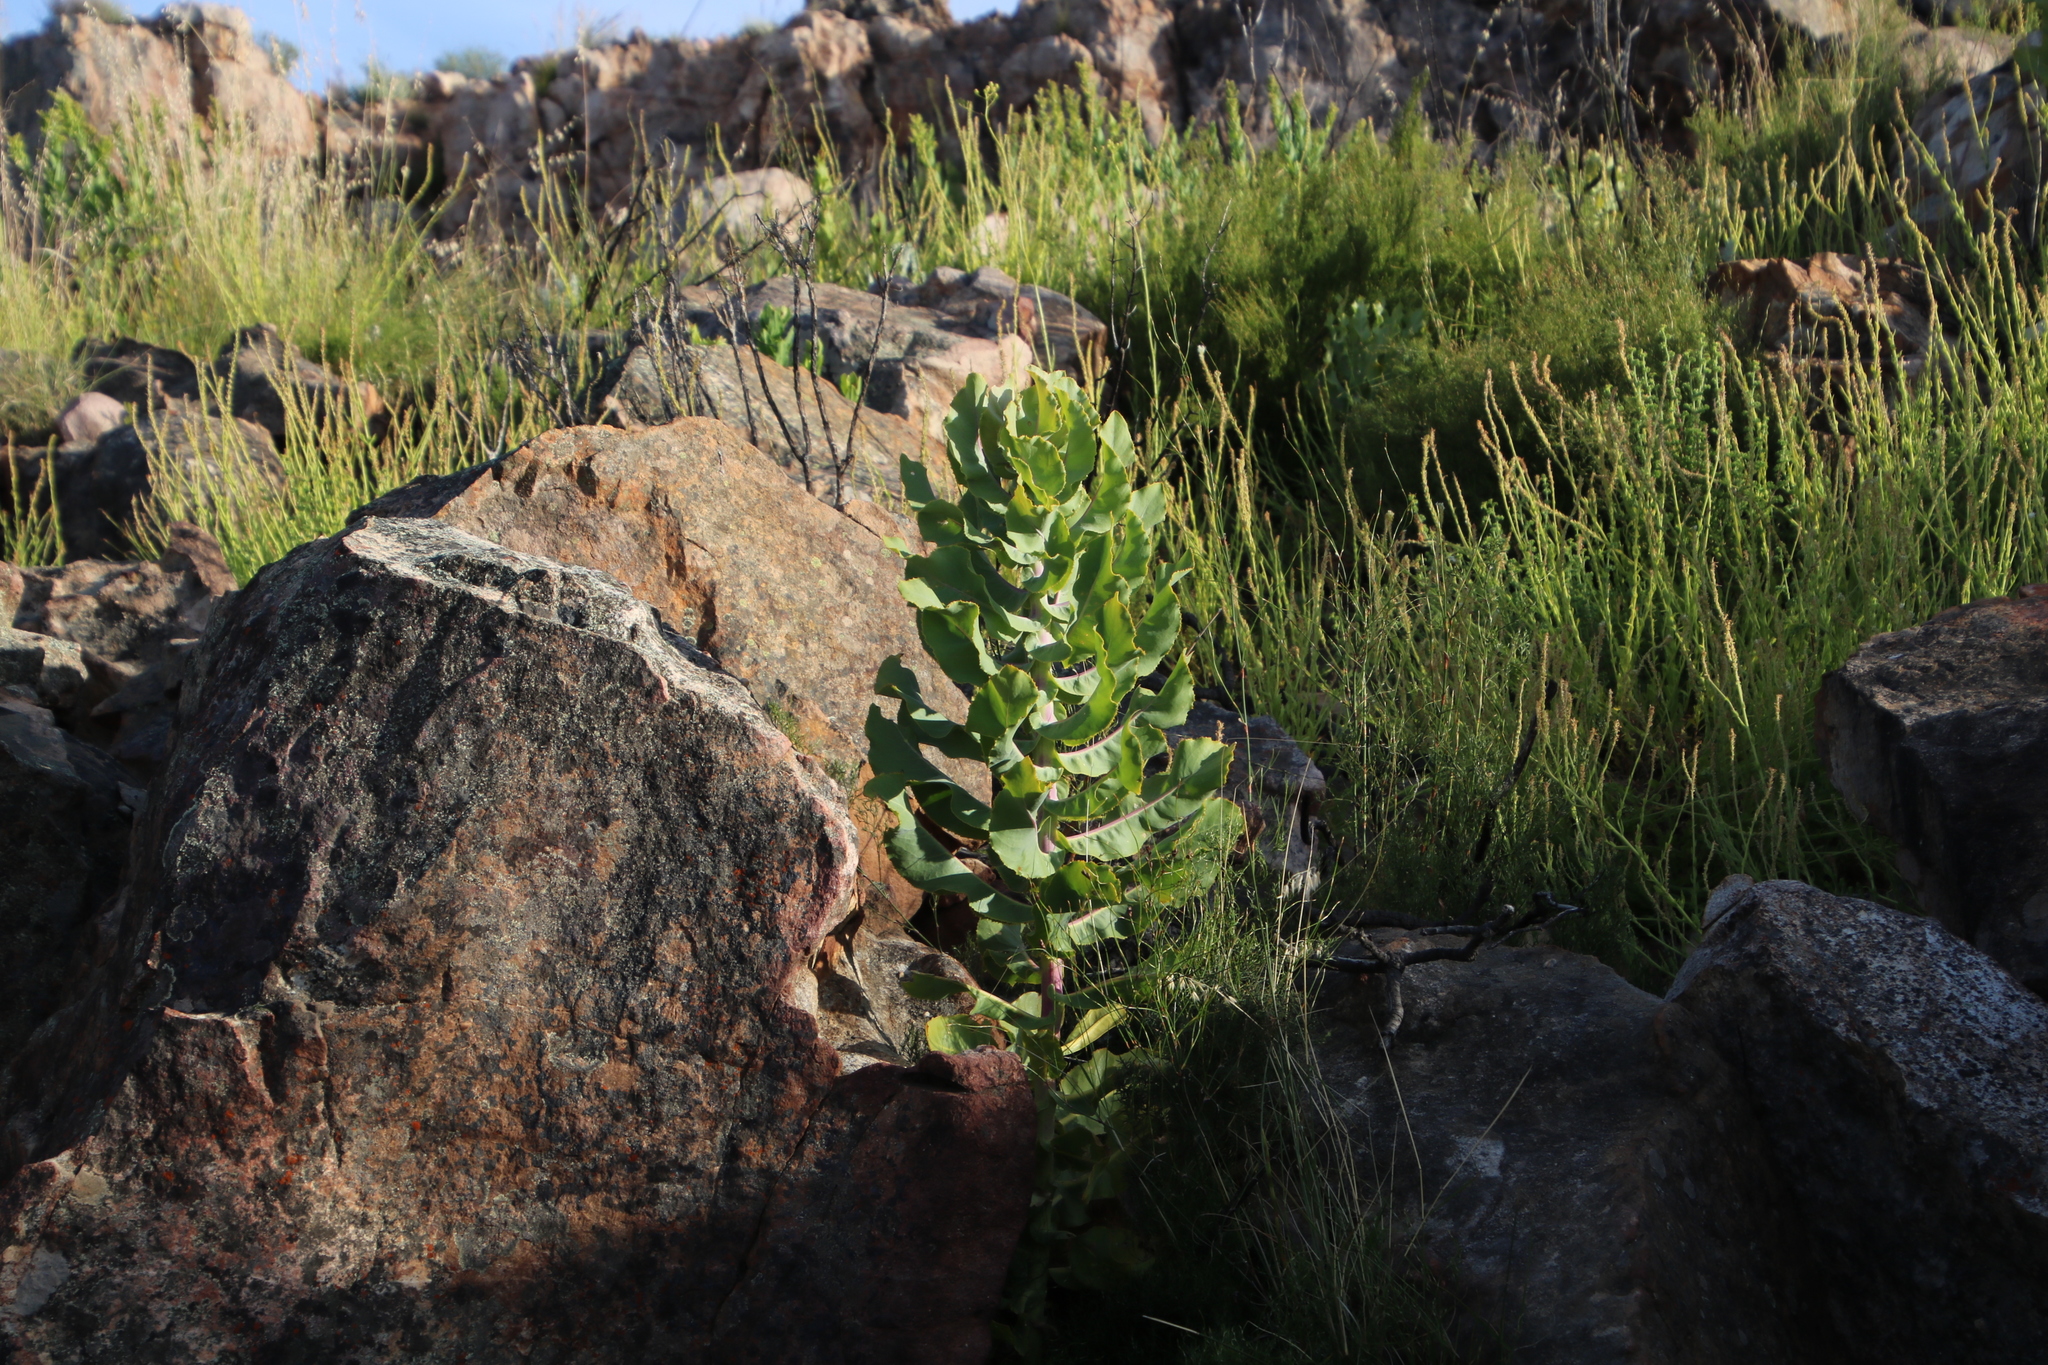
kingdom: Plantae
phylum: Tracheophyta
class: Magnoliopsida
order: Asterales
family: Asteraceae
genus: Othonna
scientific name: Othonna parviflora
